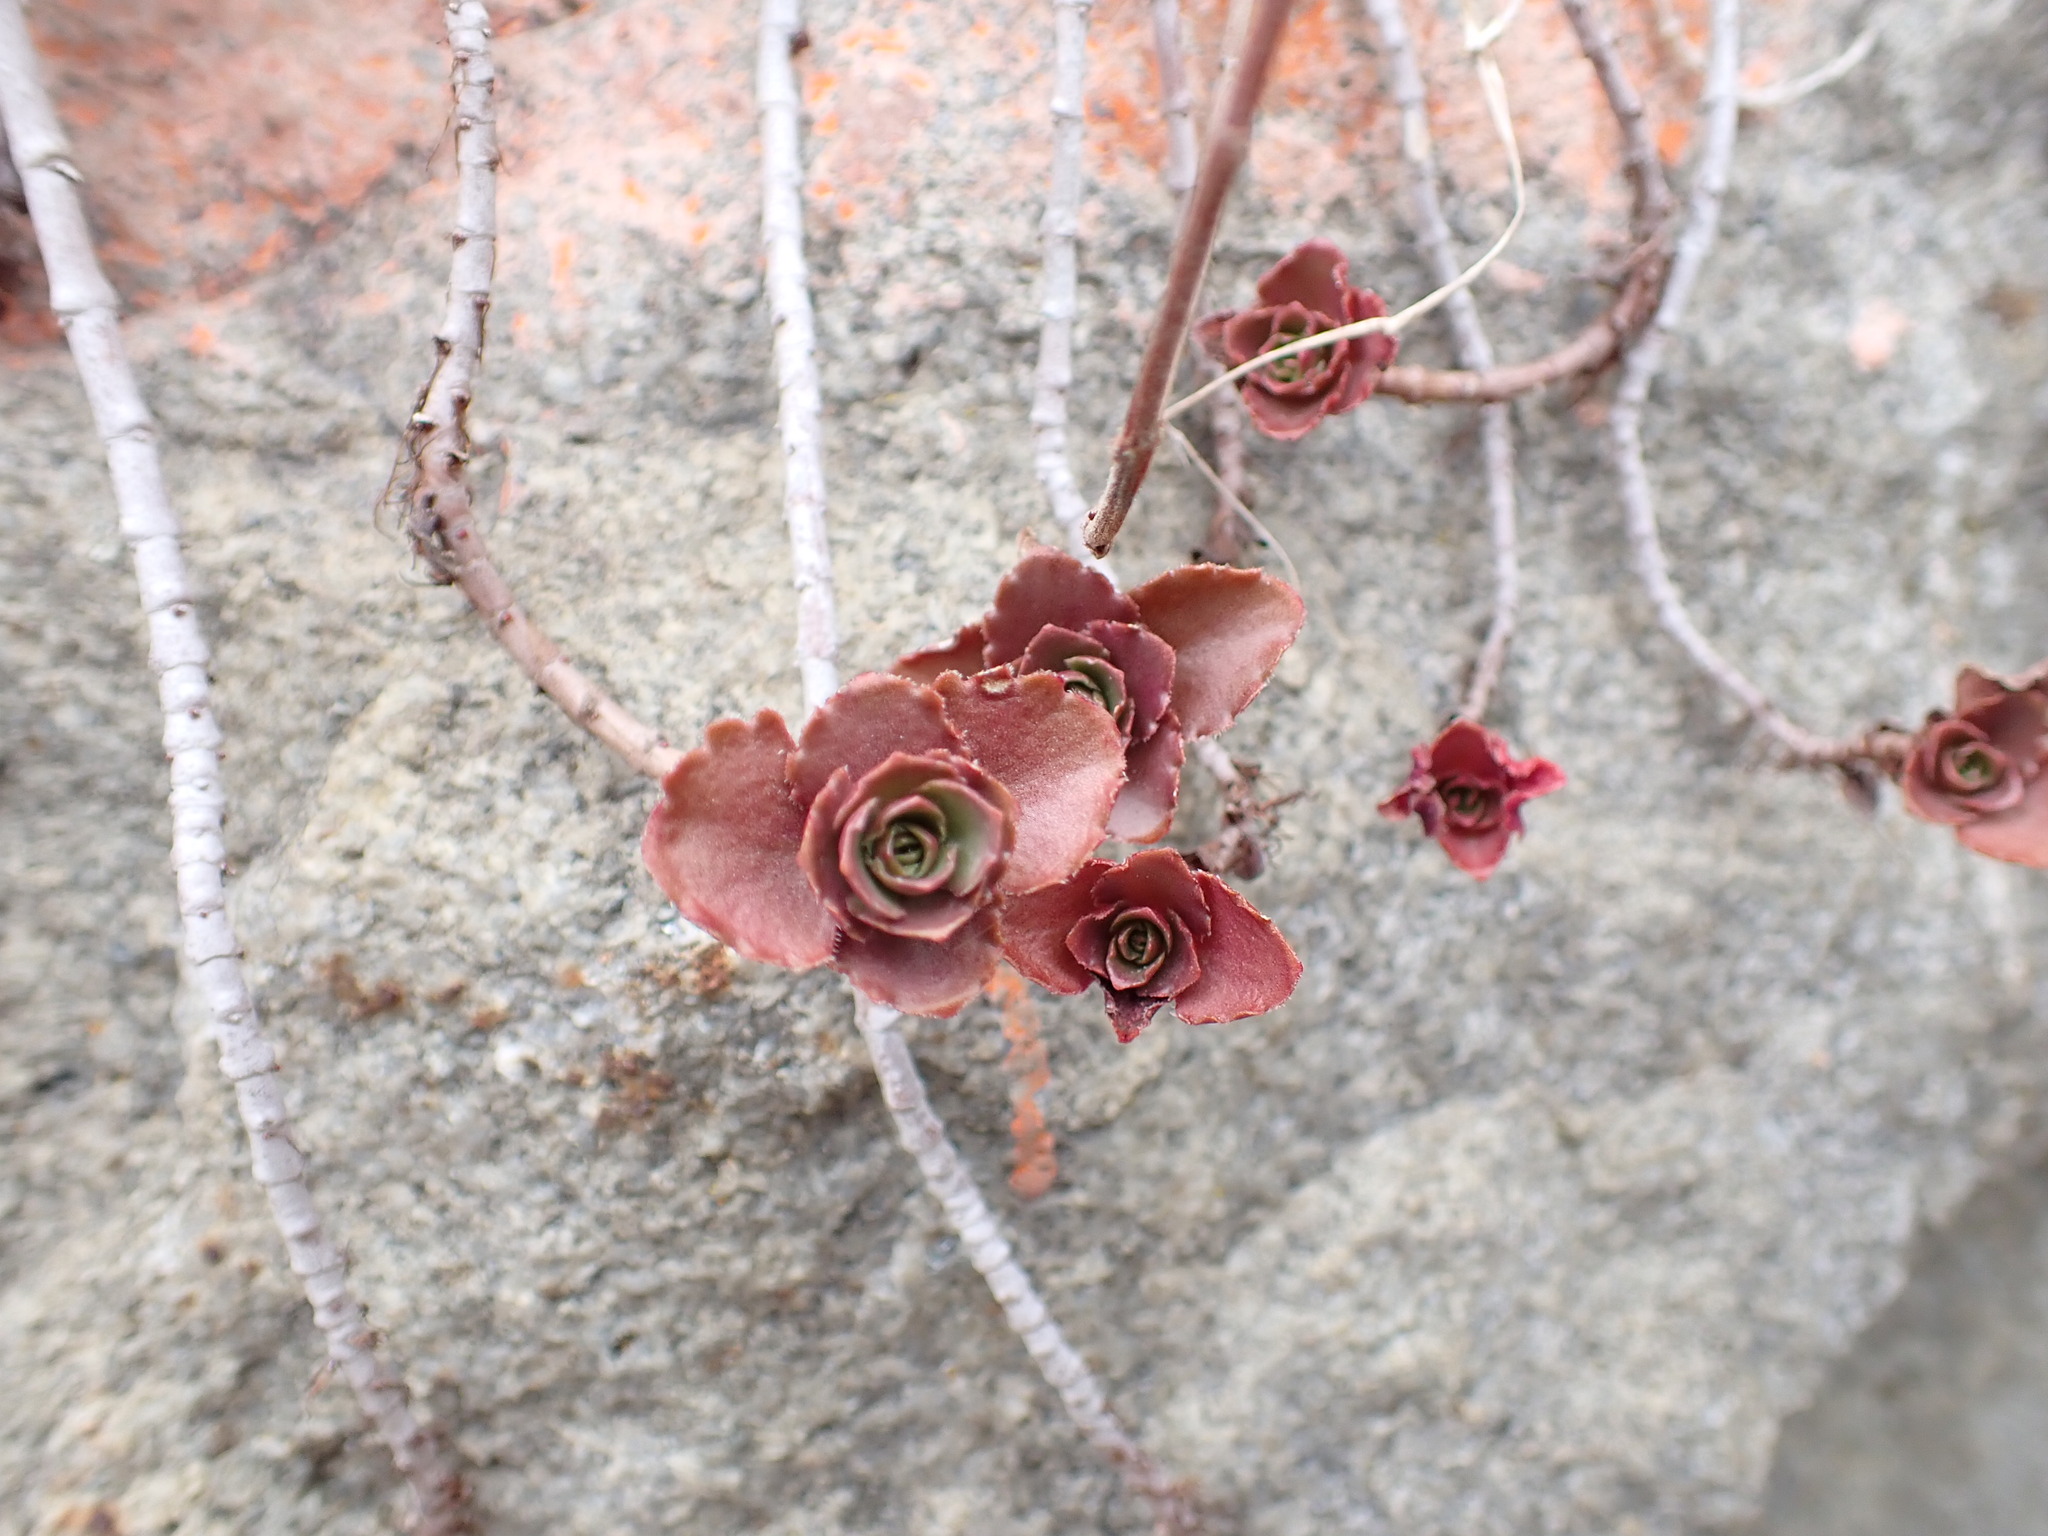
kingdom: Plantae
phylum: Tracheophyta
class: Magnoliopsida
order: Saxifragales
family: Crassulaceae
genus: Phedimus
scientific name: Phedimus spurius
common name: Caucasian stonecrop
